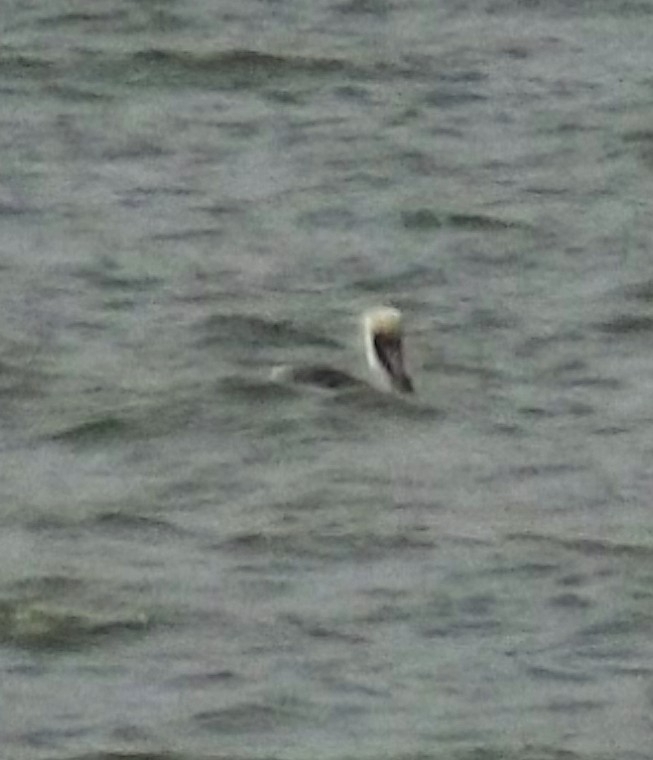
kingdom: Animalia
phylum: Chordata
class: Aves
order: Pelecaniformes
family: Pelecanidae
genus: Pelecanus
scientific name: Pelecanus occidentalis
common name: Brown pelican
